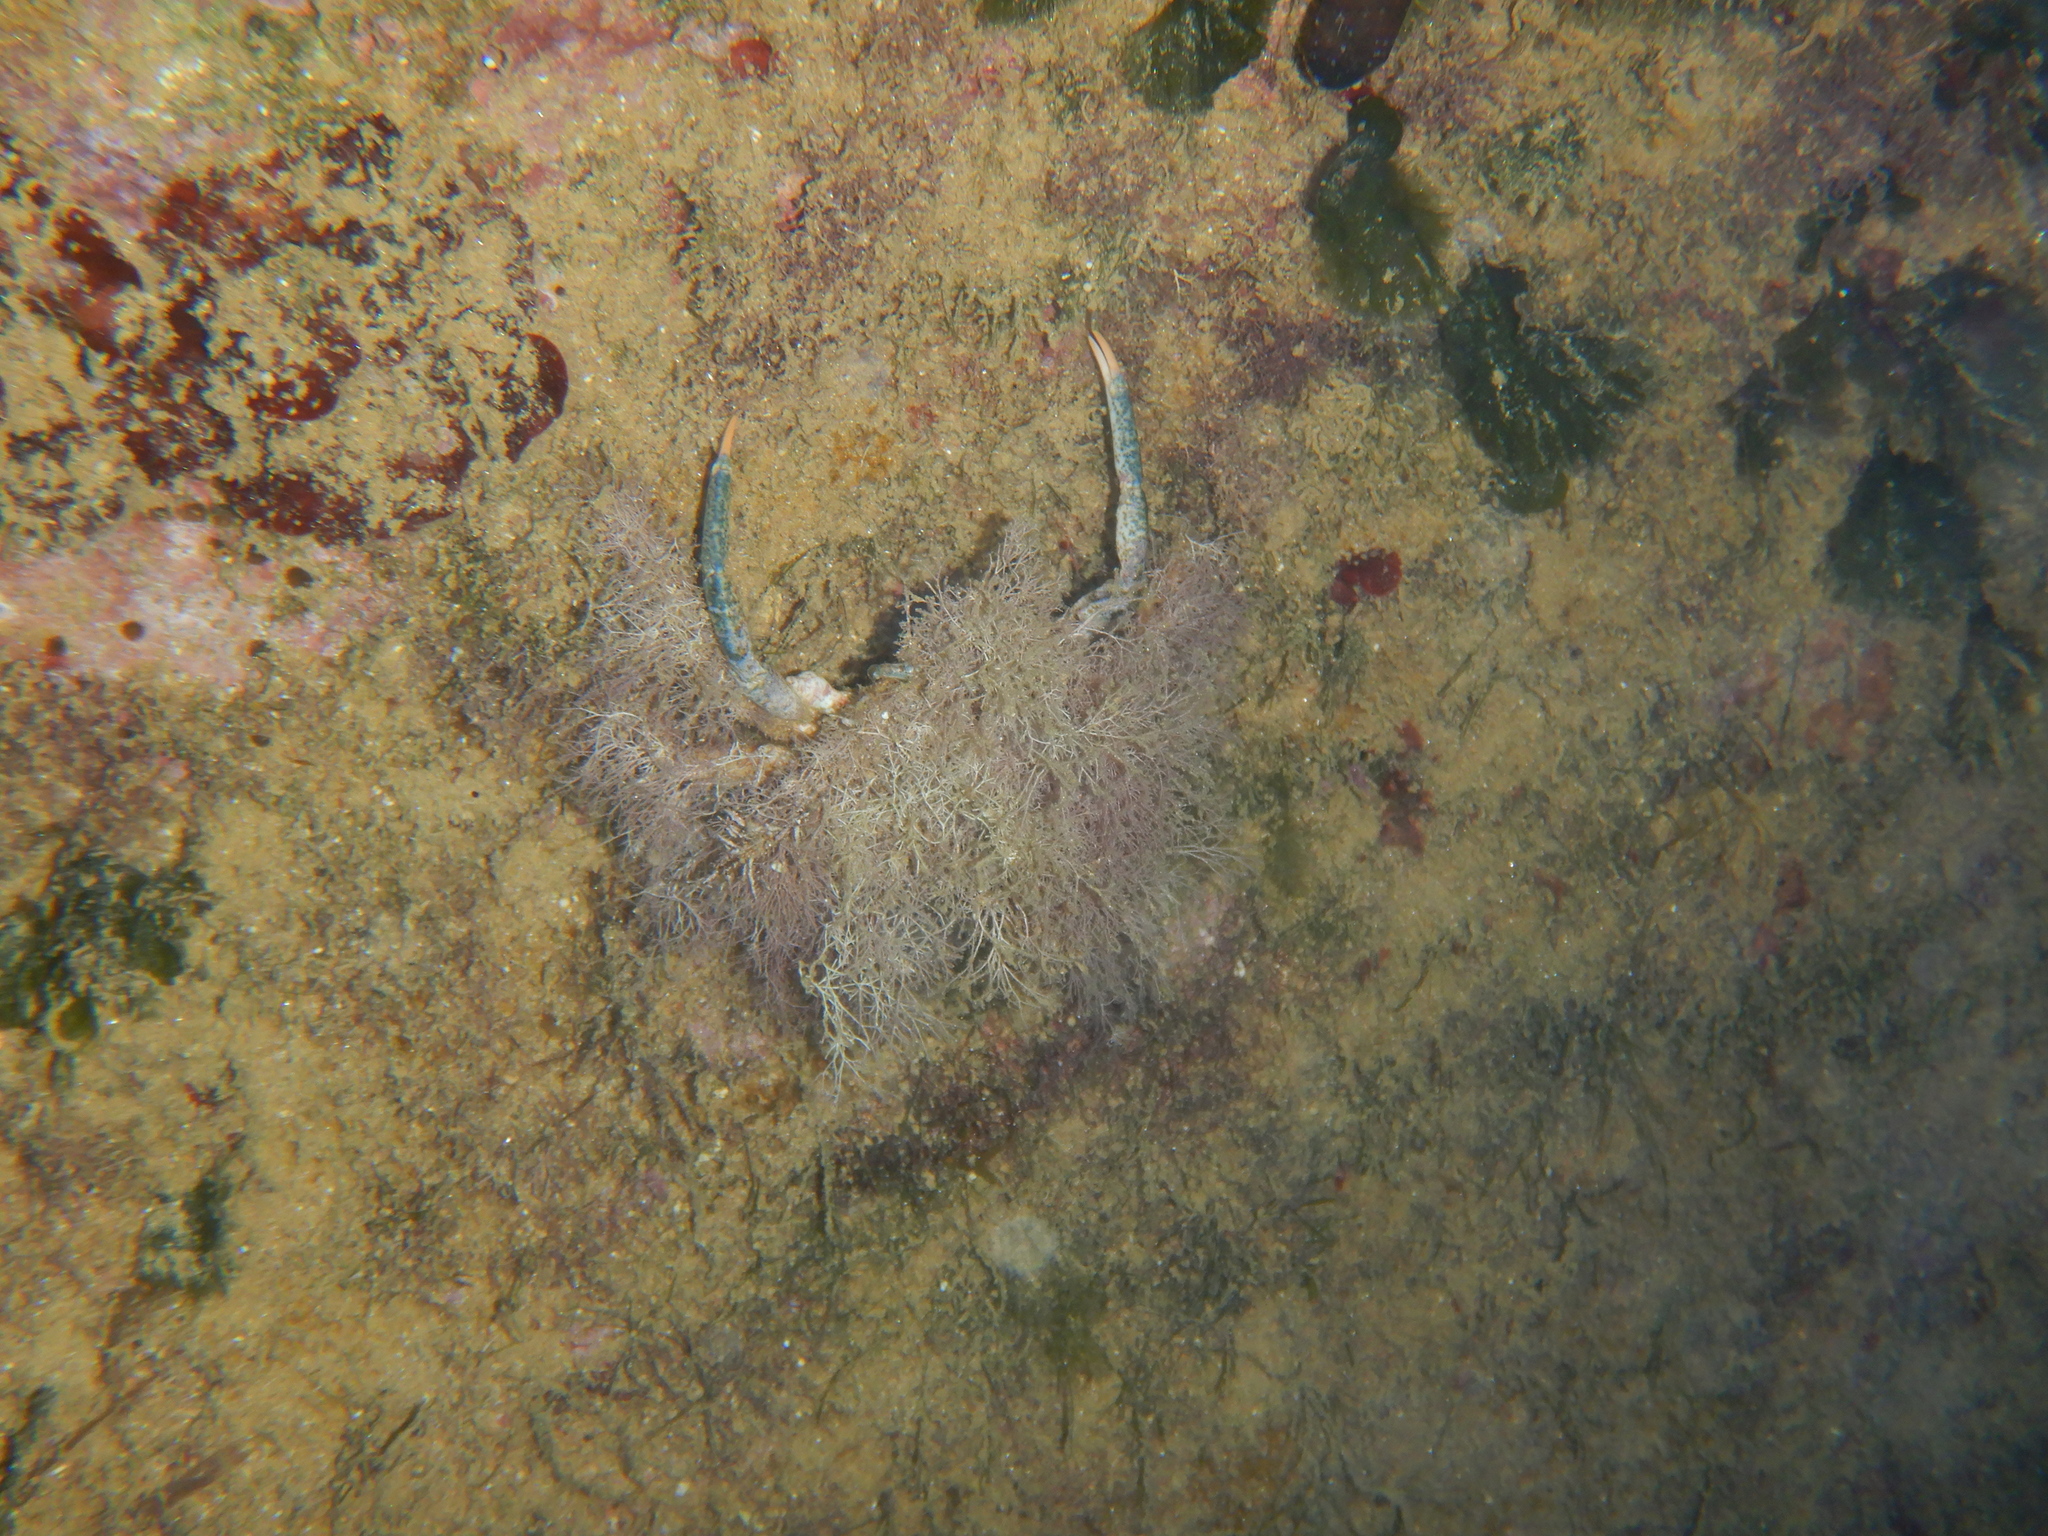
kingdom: Animalia
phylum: Arthropoda
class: Malacostraca
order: Decapoda
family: Majidae
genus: Maja
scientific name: Maja crispata
